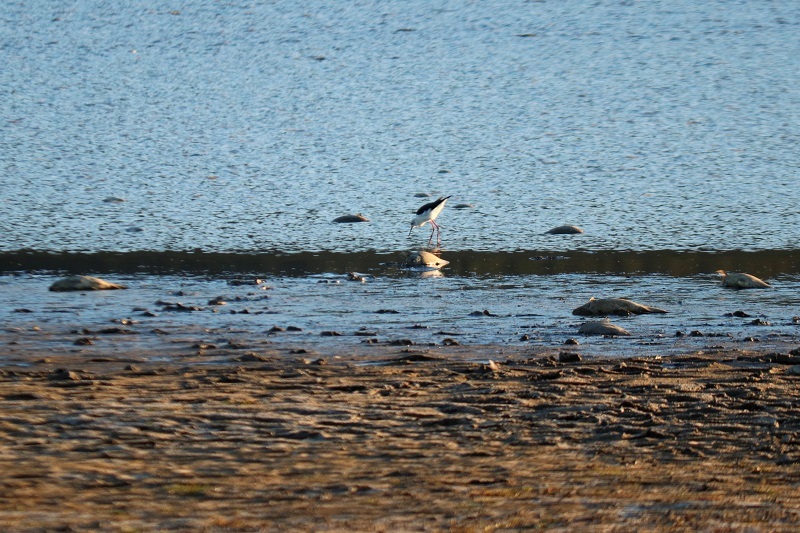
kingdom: Animalia
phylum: Chordata
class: Aves
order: Charadriiformes
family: Recurvirostridae
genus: Himantopus
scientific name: Himantopus himantopus
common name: Black-winged stilt
